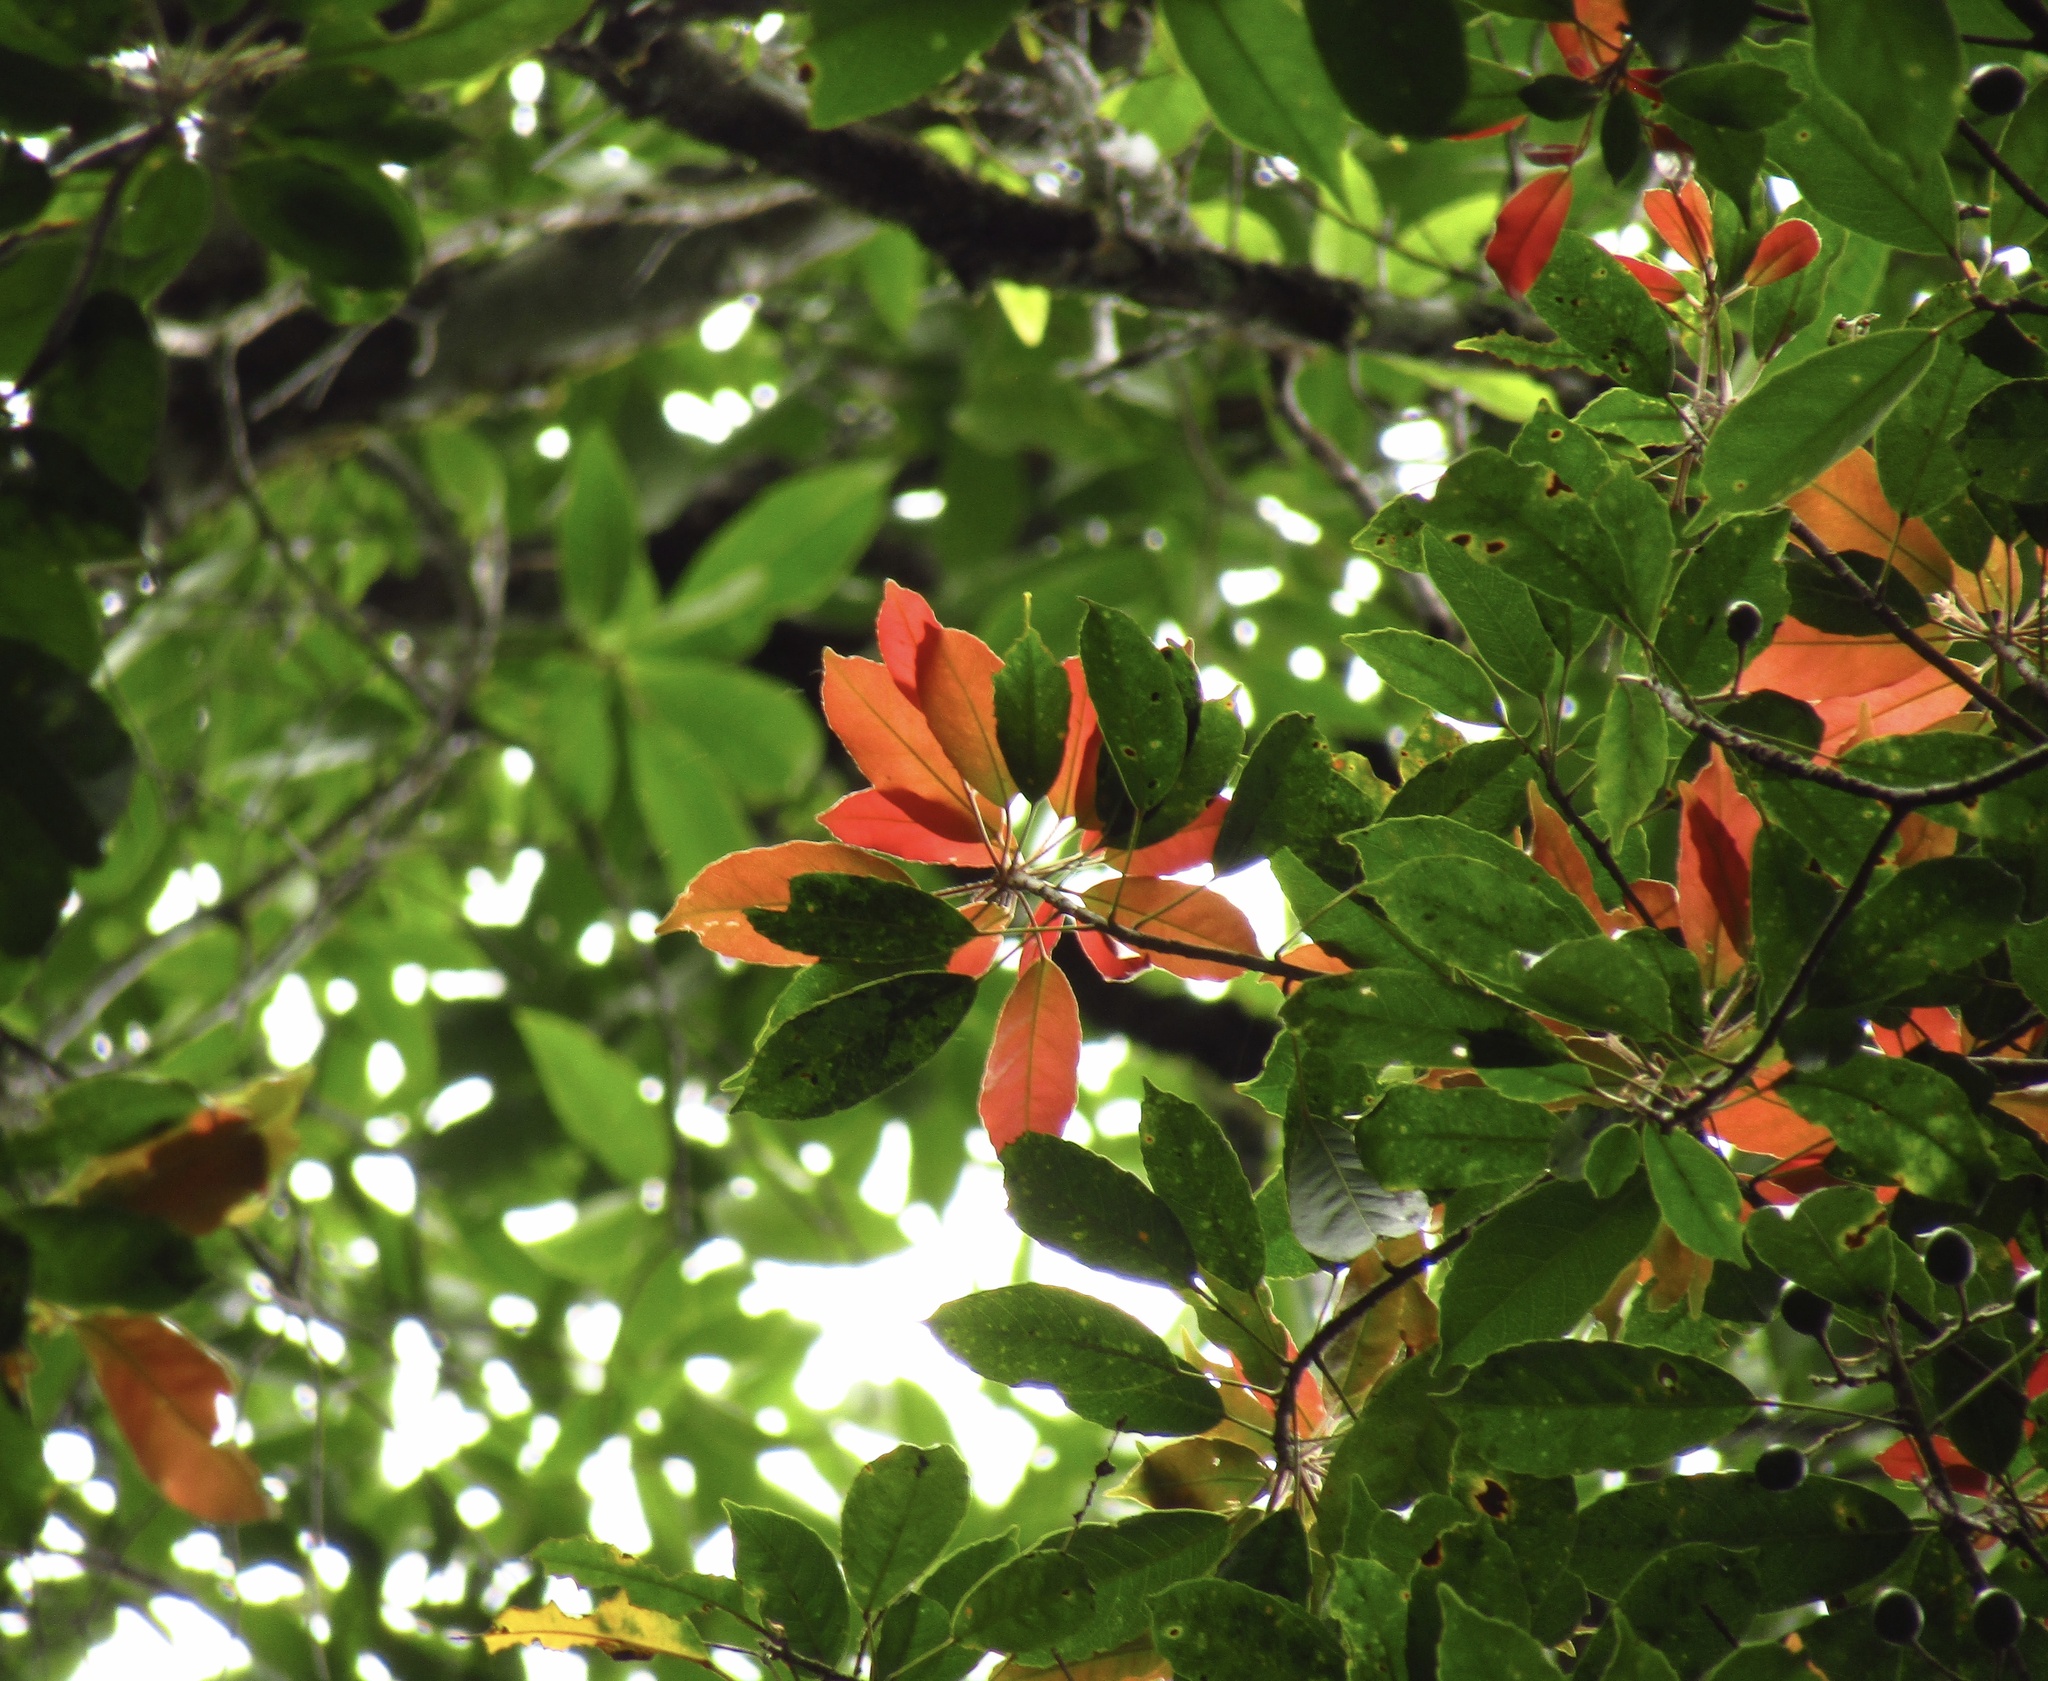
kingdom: Plantae
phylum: Tracheophyta
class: Magnoliopsida
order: Oxalidales
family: Elaeocarpaceae
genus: Elaeocarpus
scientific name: Elaeocarpus eumundi
